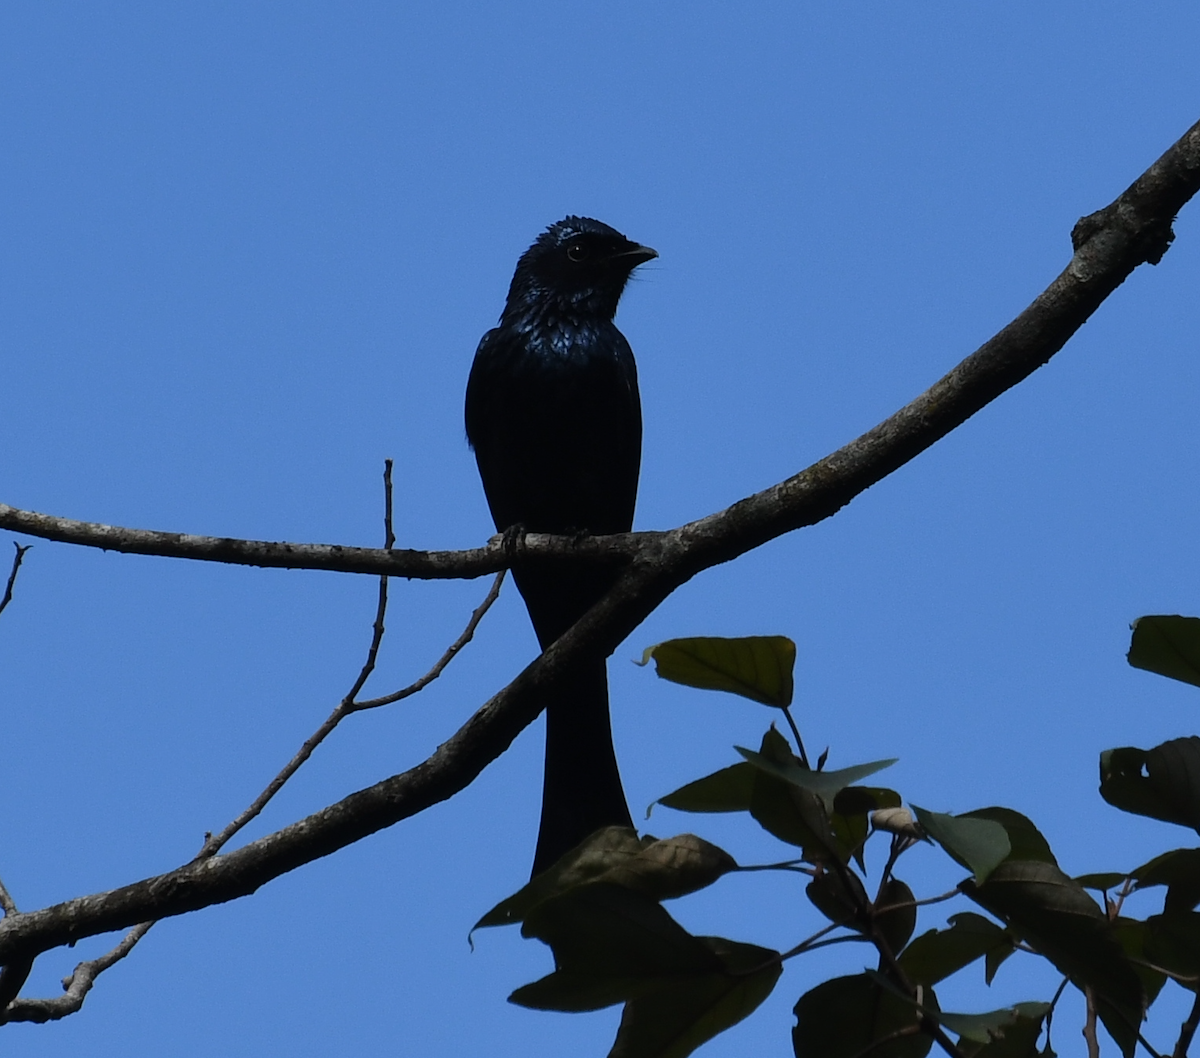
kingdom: Animalia
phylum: Chordata
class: Aves
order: Passeriformes
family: Dicruridae
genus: Dicrurus
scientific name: Dicrurus aeneus
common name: Bronzed drongo
